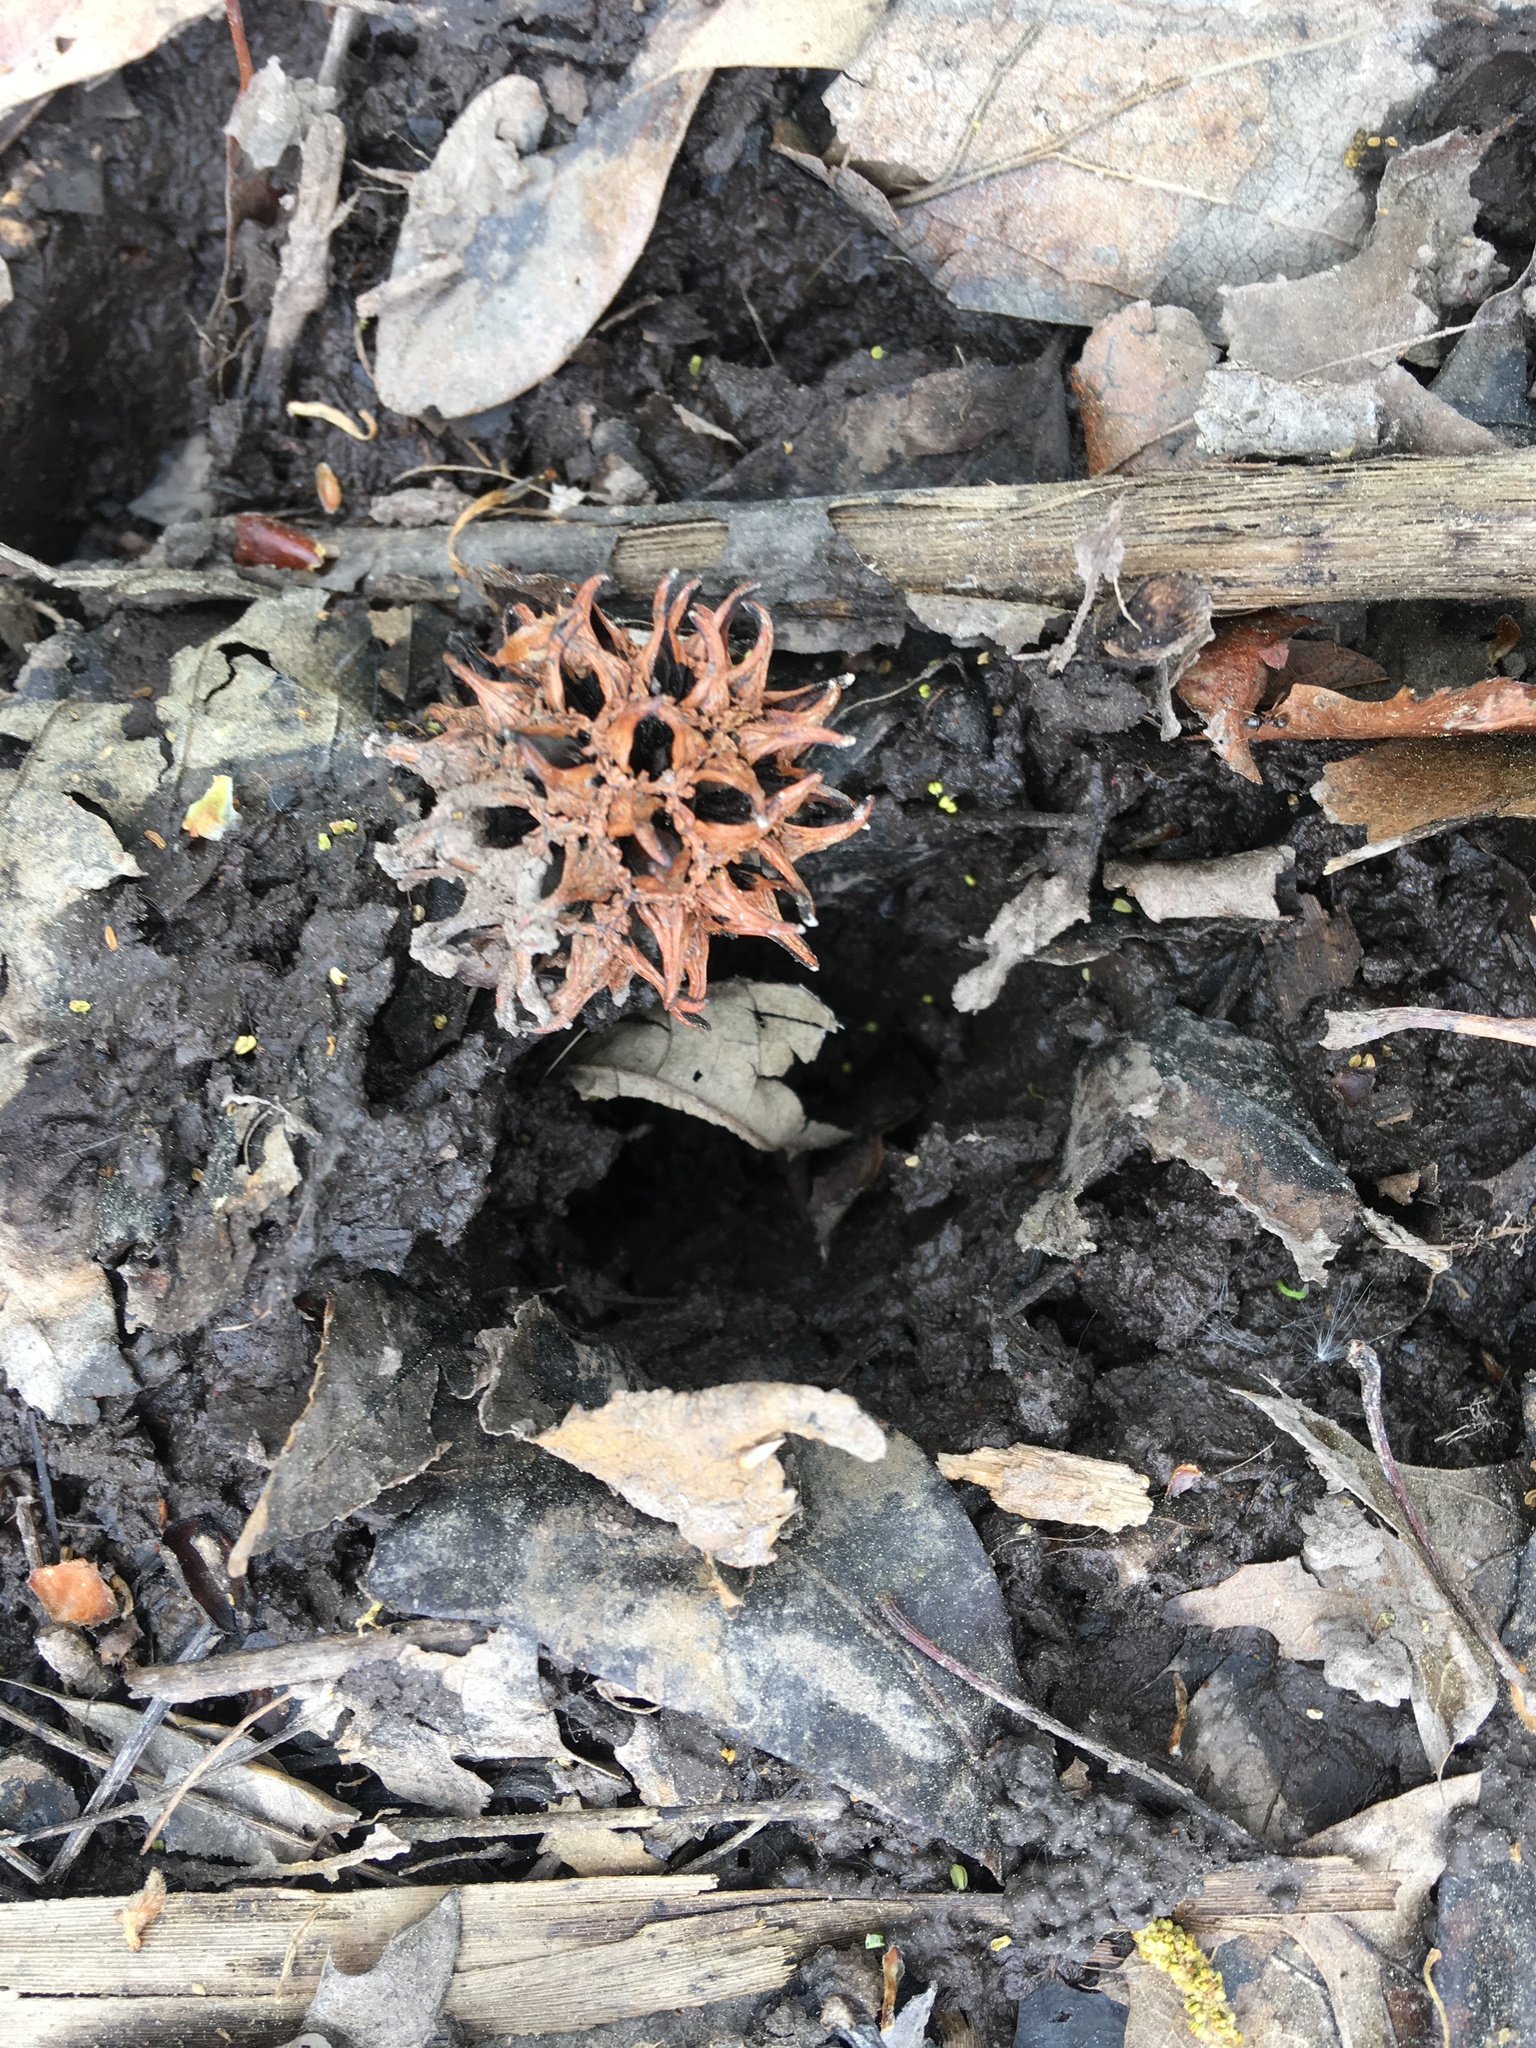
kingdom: Plantae
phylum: Tracheophyta
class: Magnoliopsida
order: Saxifragales
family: Altingiaceae
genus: Liquidambar
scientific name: Liquidambar styraciflua
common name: Sweet gum
